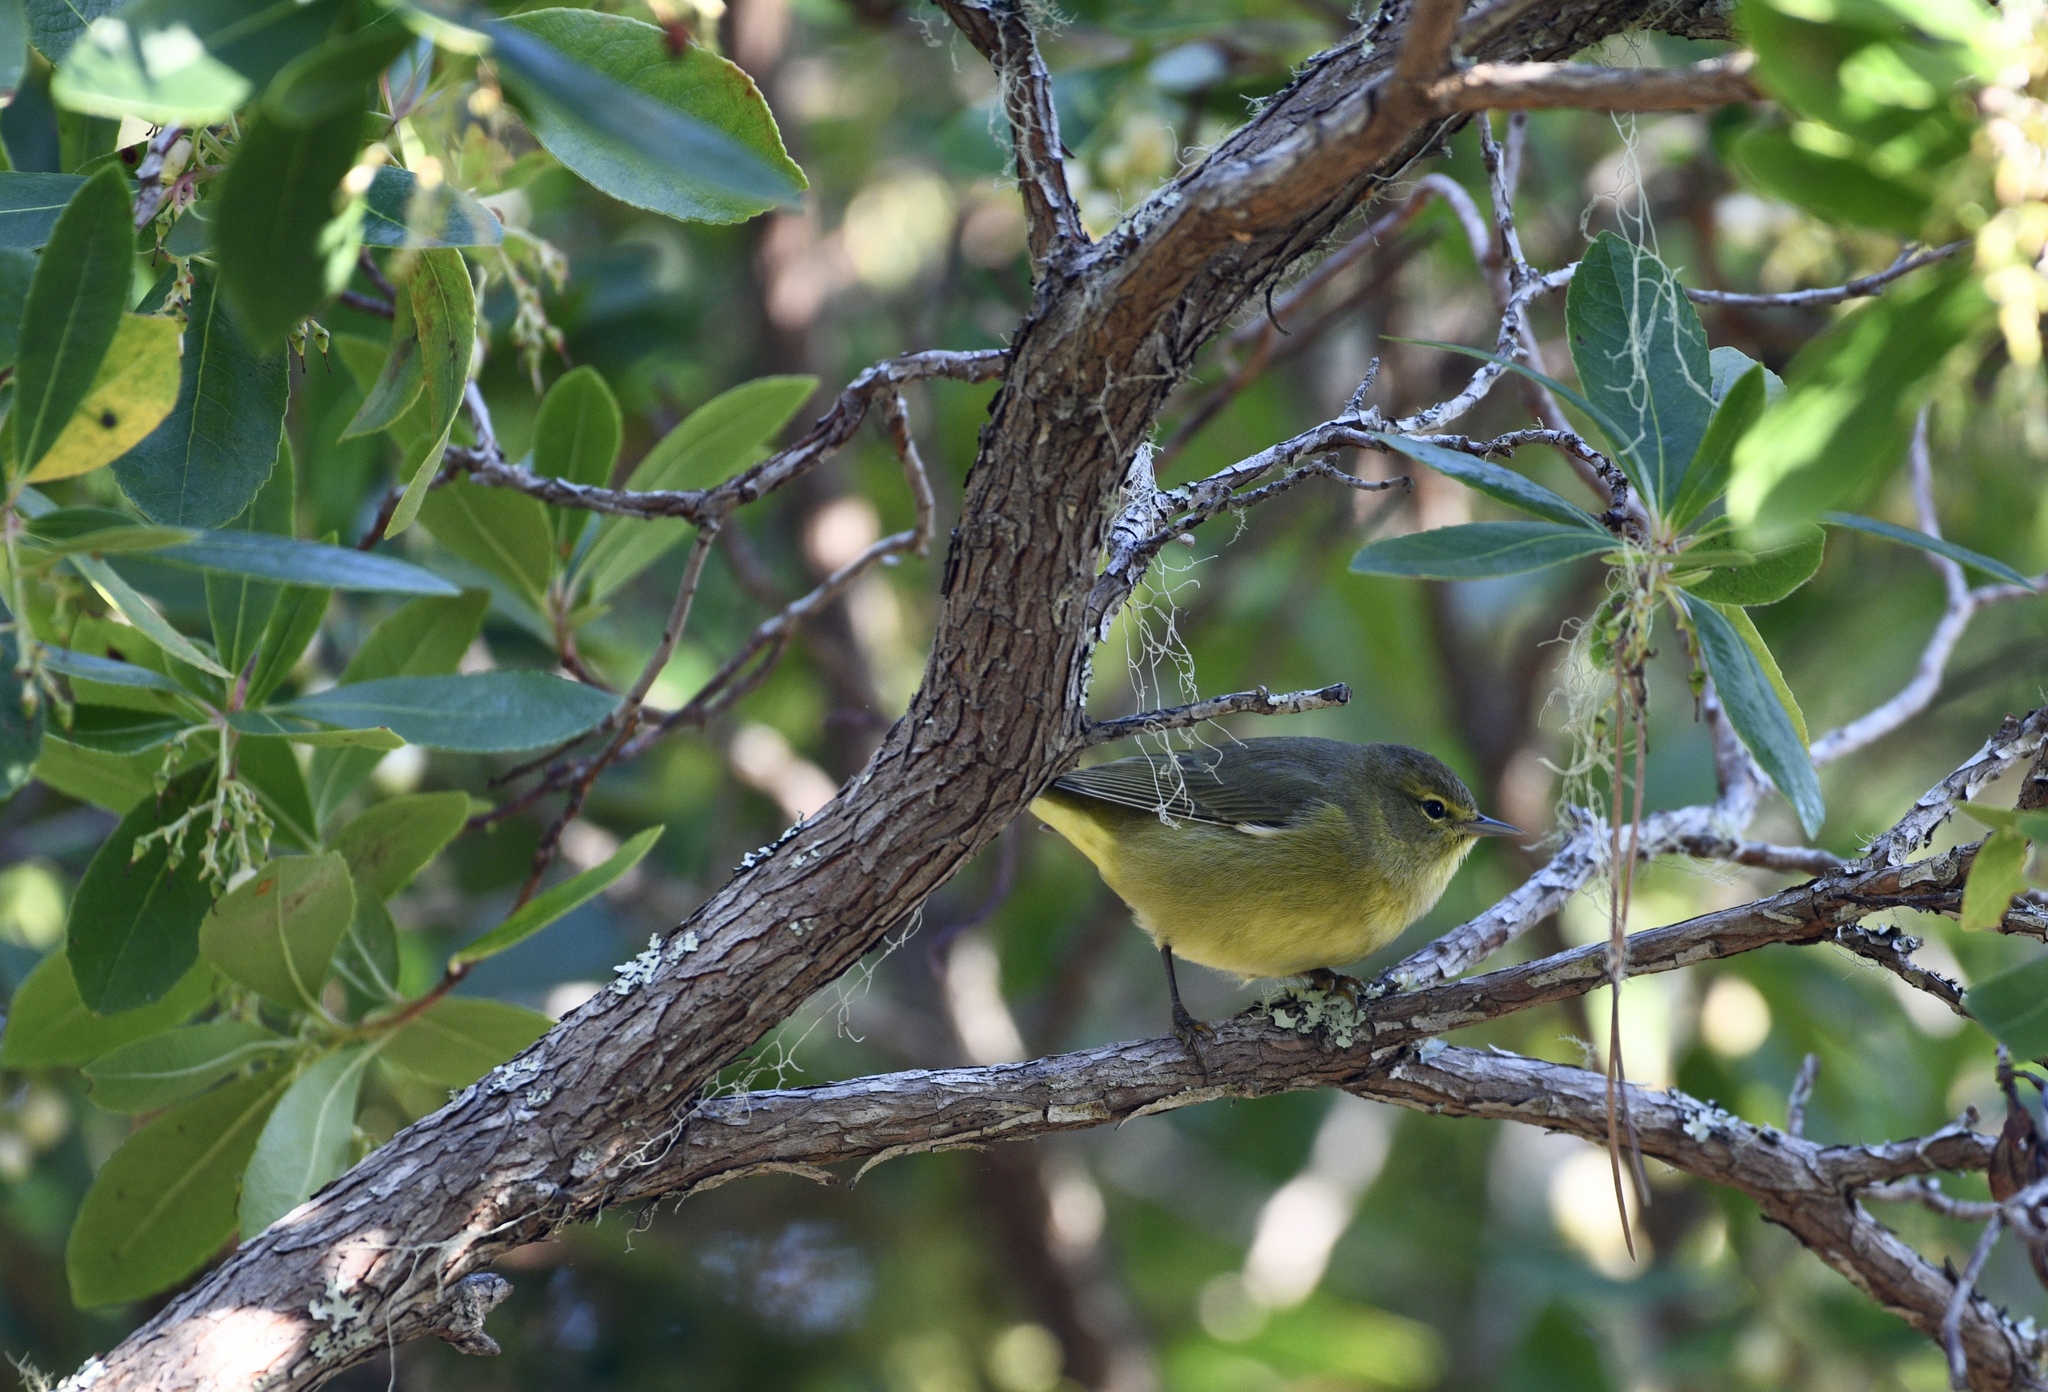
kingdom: Animalia
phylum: Chordata
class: Aves
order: Passeriformes
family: Parulidae
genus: Leiothlypis
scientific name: Leiothlypis celata
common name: Orange-crowned warbler
